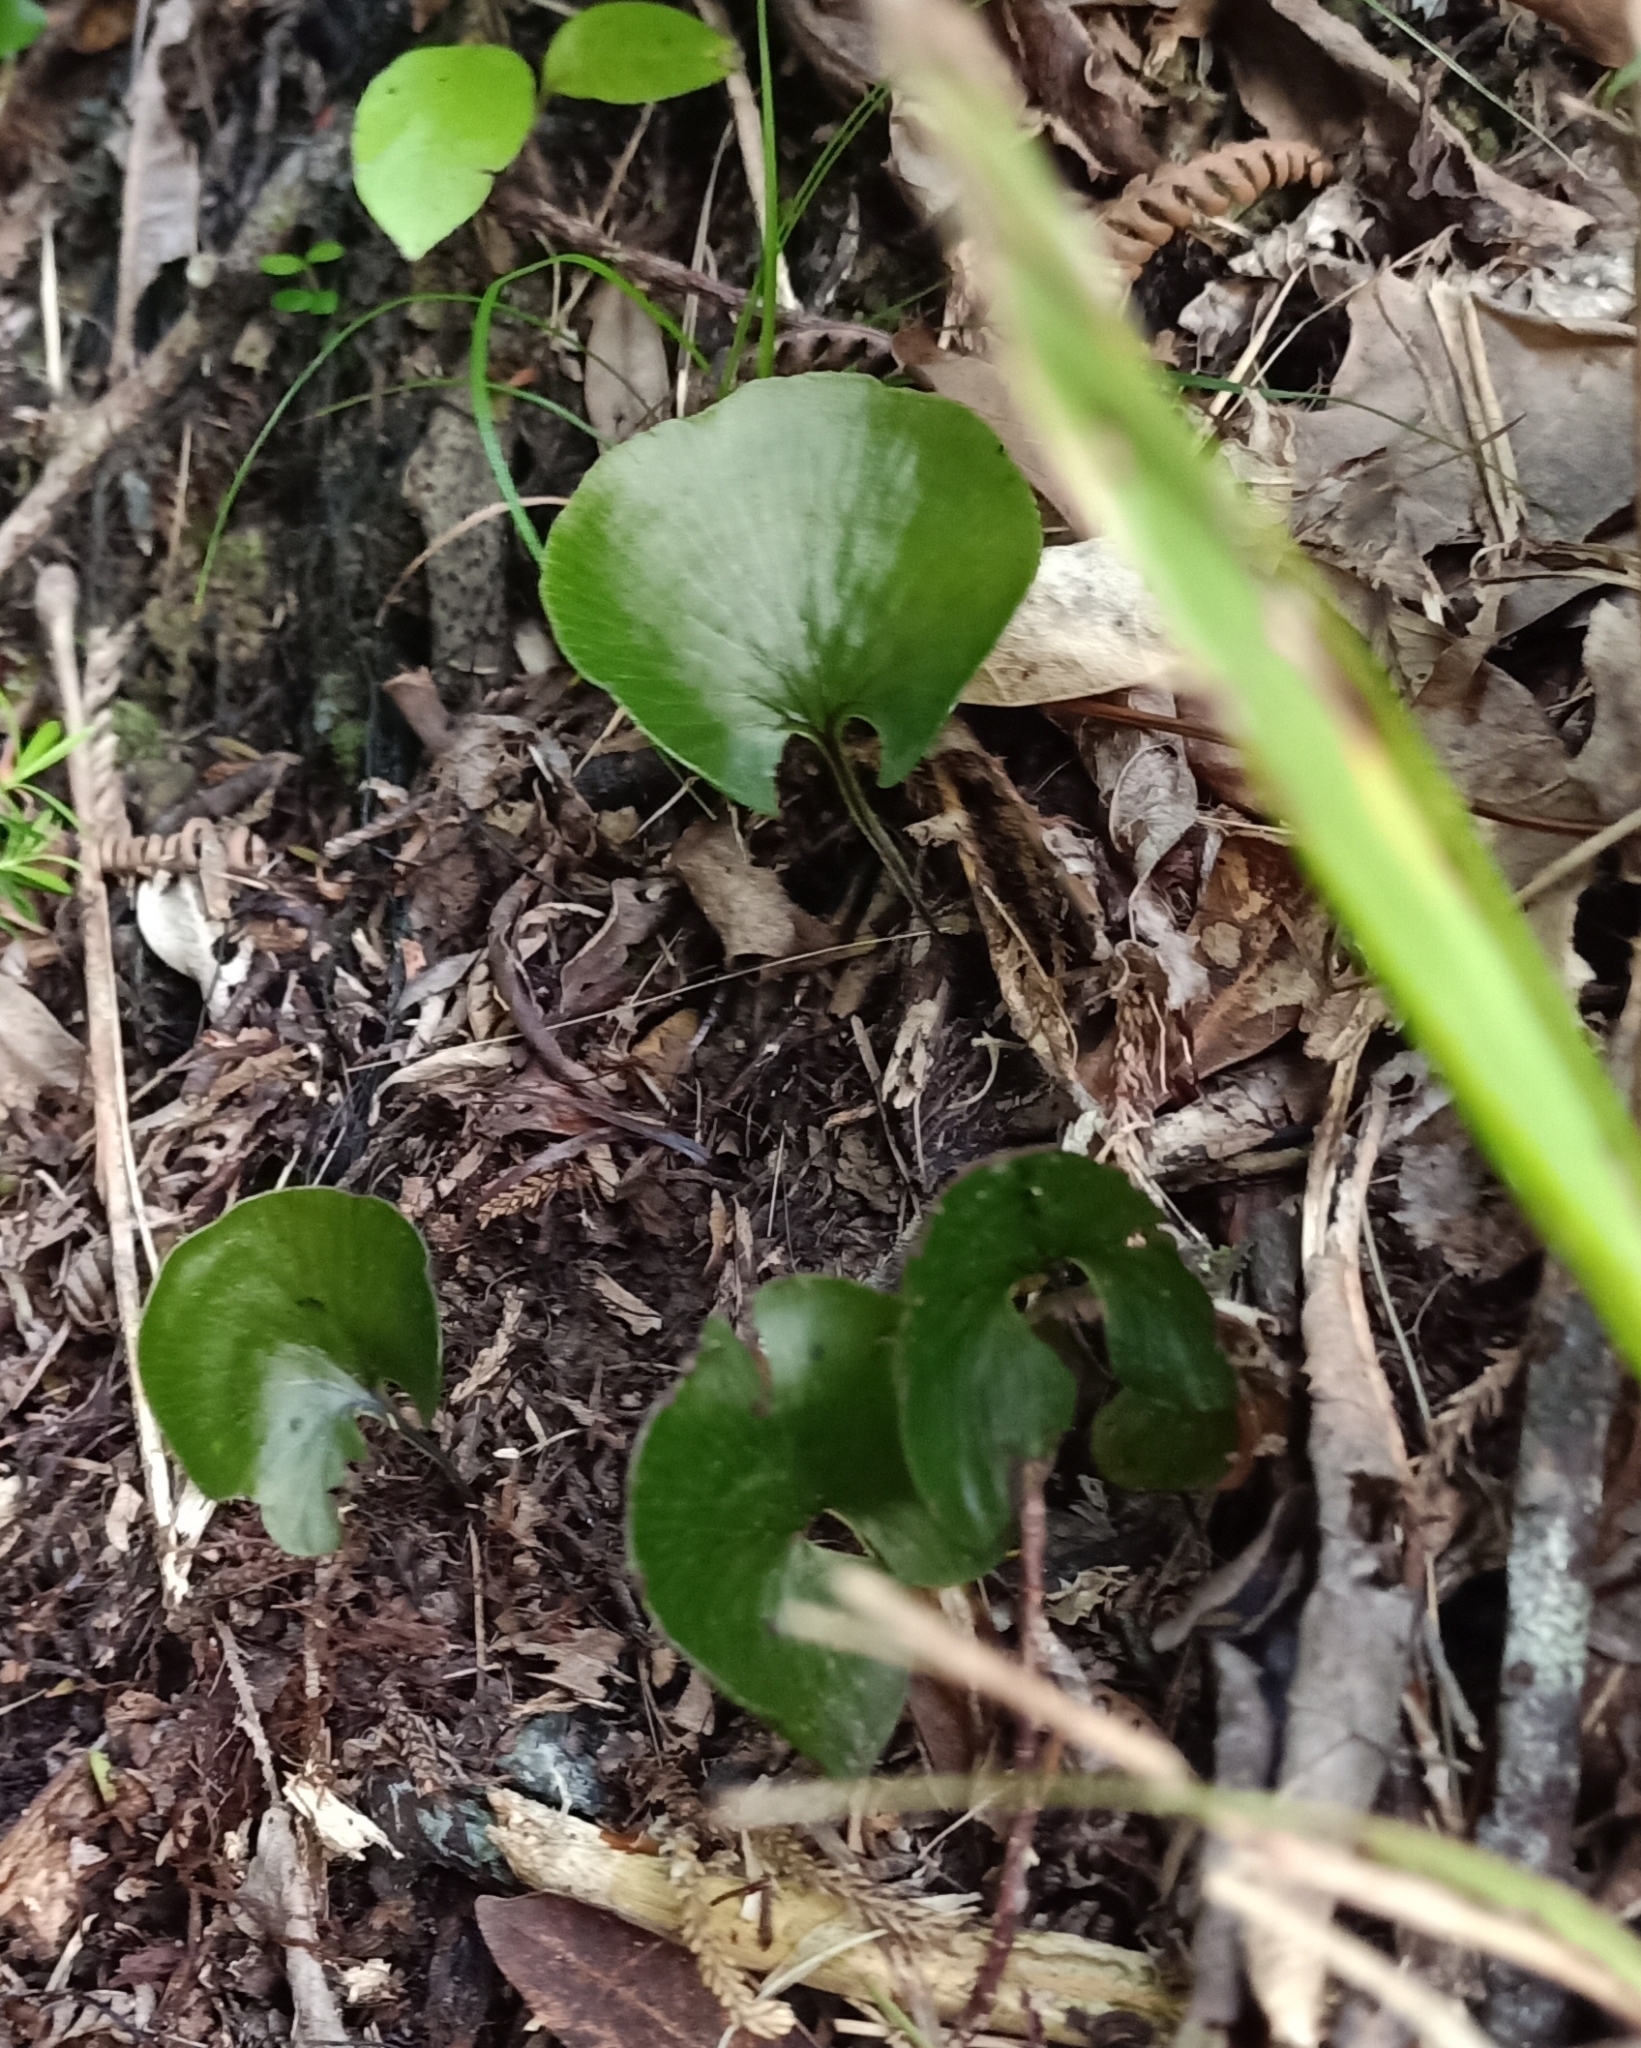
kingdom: Plantae
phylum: Tracheophyta
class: Polypodiopsida
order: Hymenophyllales
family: Hymenophyllaceae
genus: Hymenophyllum
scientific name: Hymenophyllum nephrophyllum
